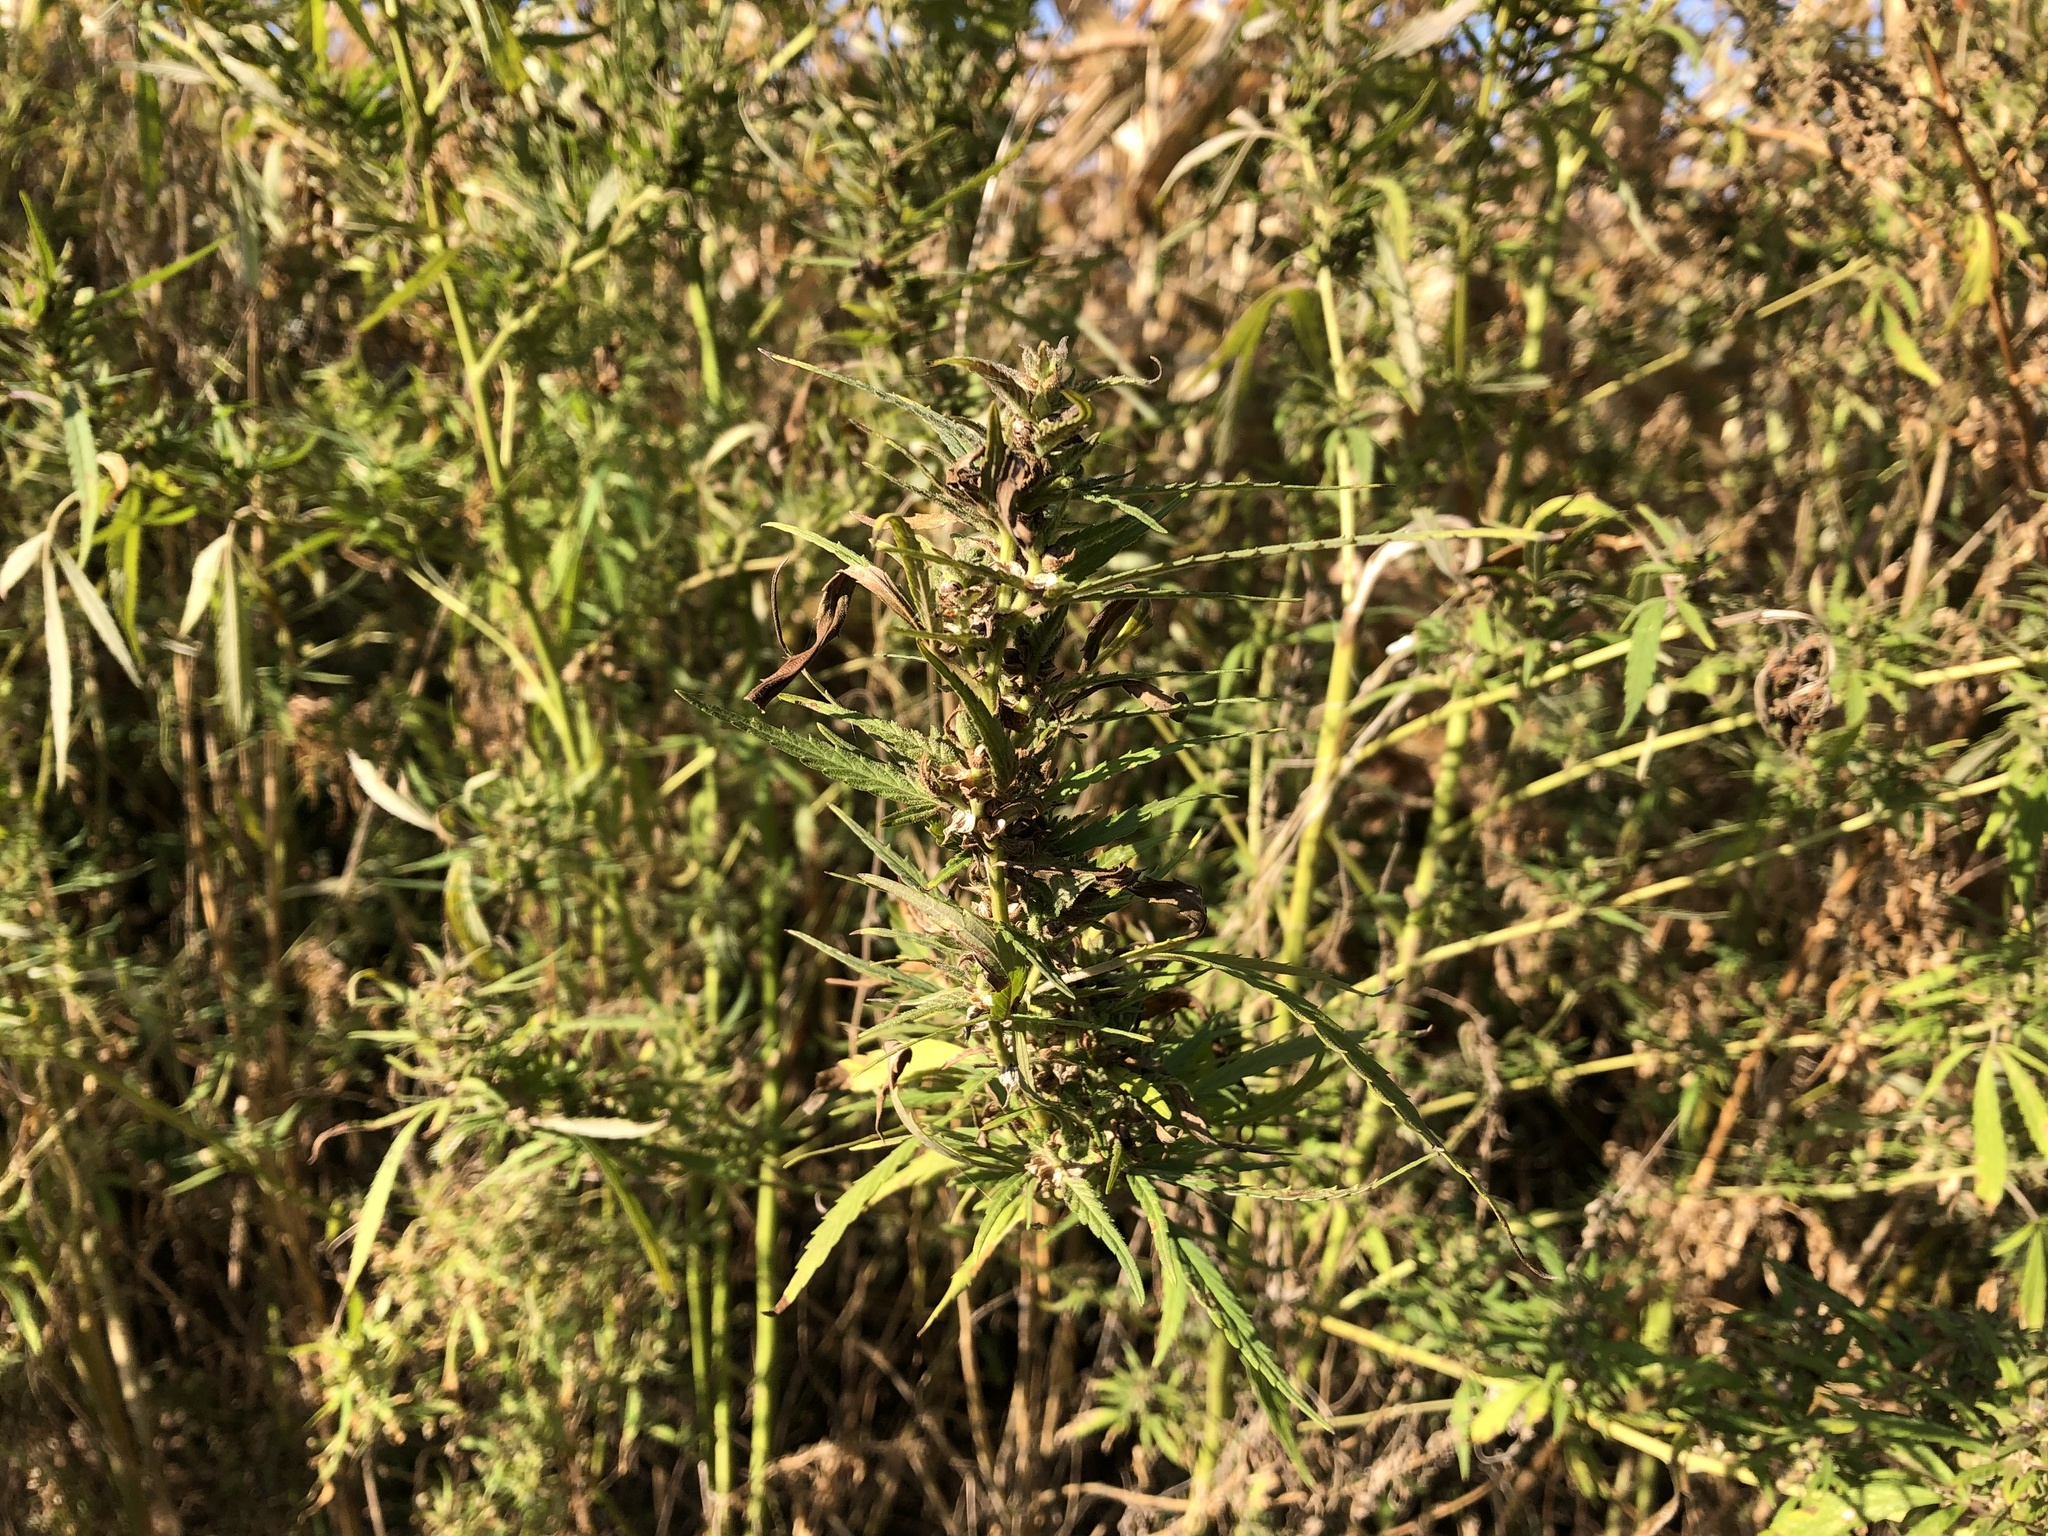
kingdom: Plantae
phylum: Tracheophyta
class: Magnoliopsida
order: Rosales
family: Cannabaceae
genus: Cannabis
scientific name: Cannabis sativa
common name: Hemp
